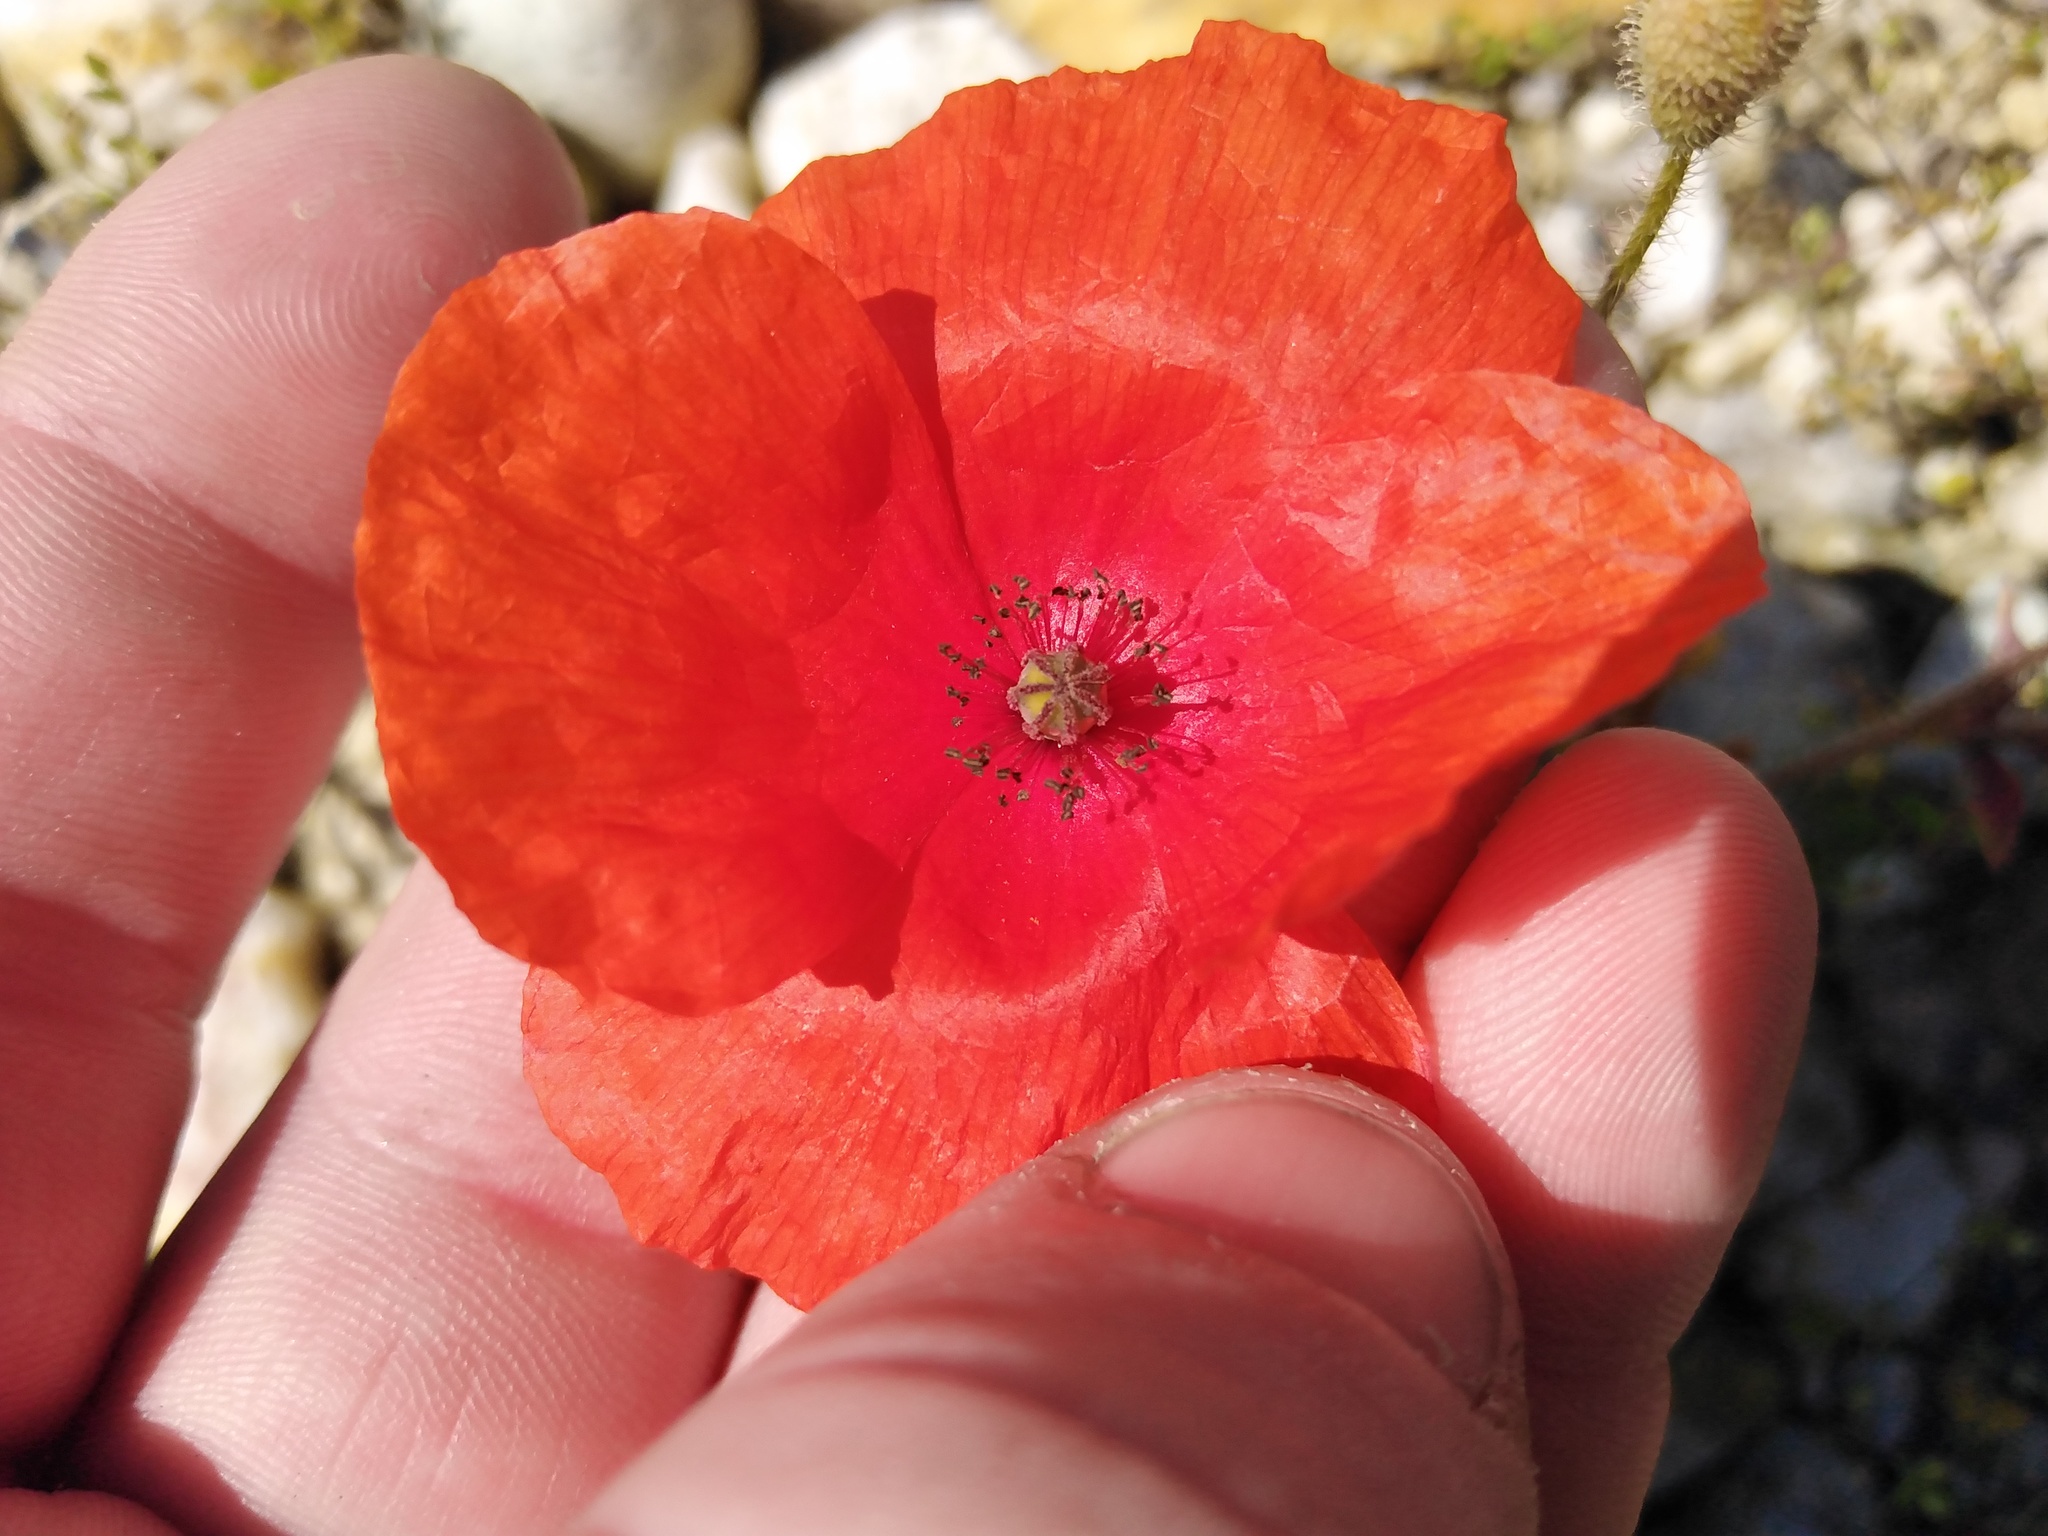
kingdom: Plantae
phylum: Tracheophyta
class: Magnoliopsida
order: Ranunculales
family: Papaveraceae
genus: Papaver
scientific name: Papaver rhoeas
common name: Corn poppy
